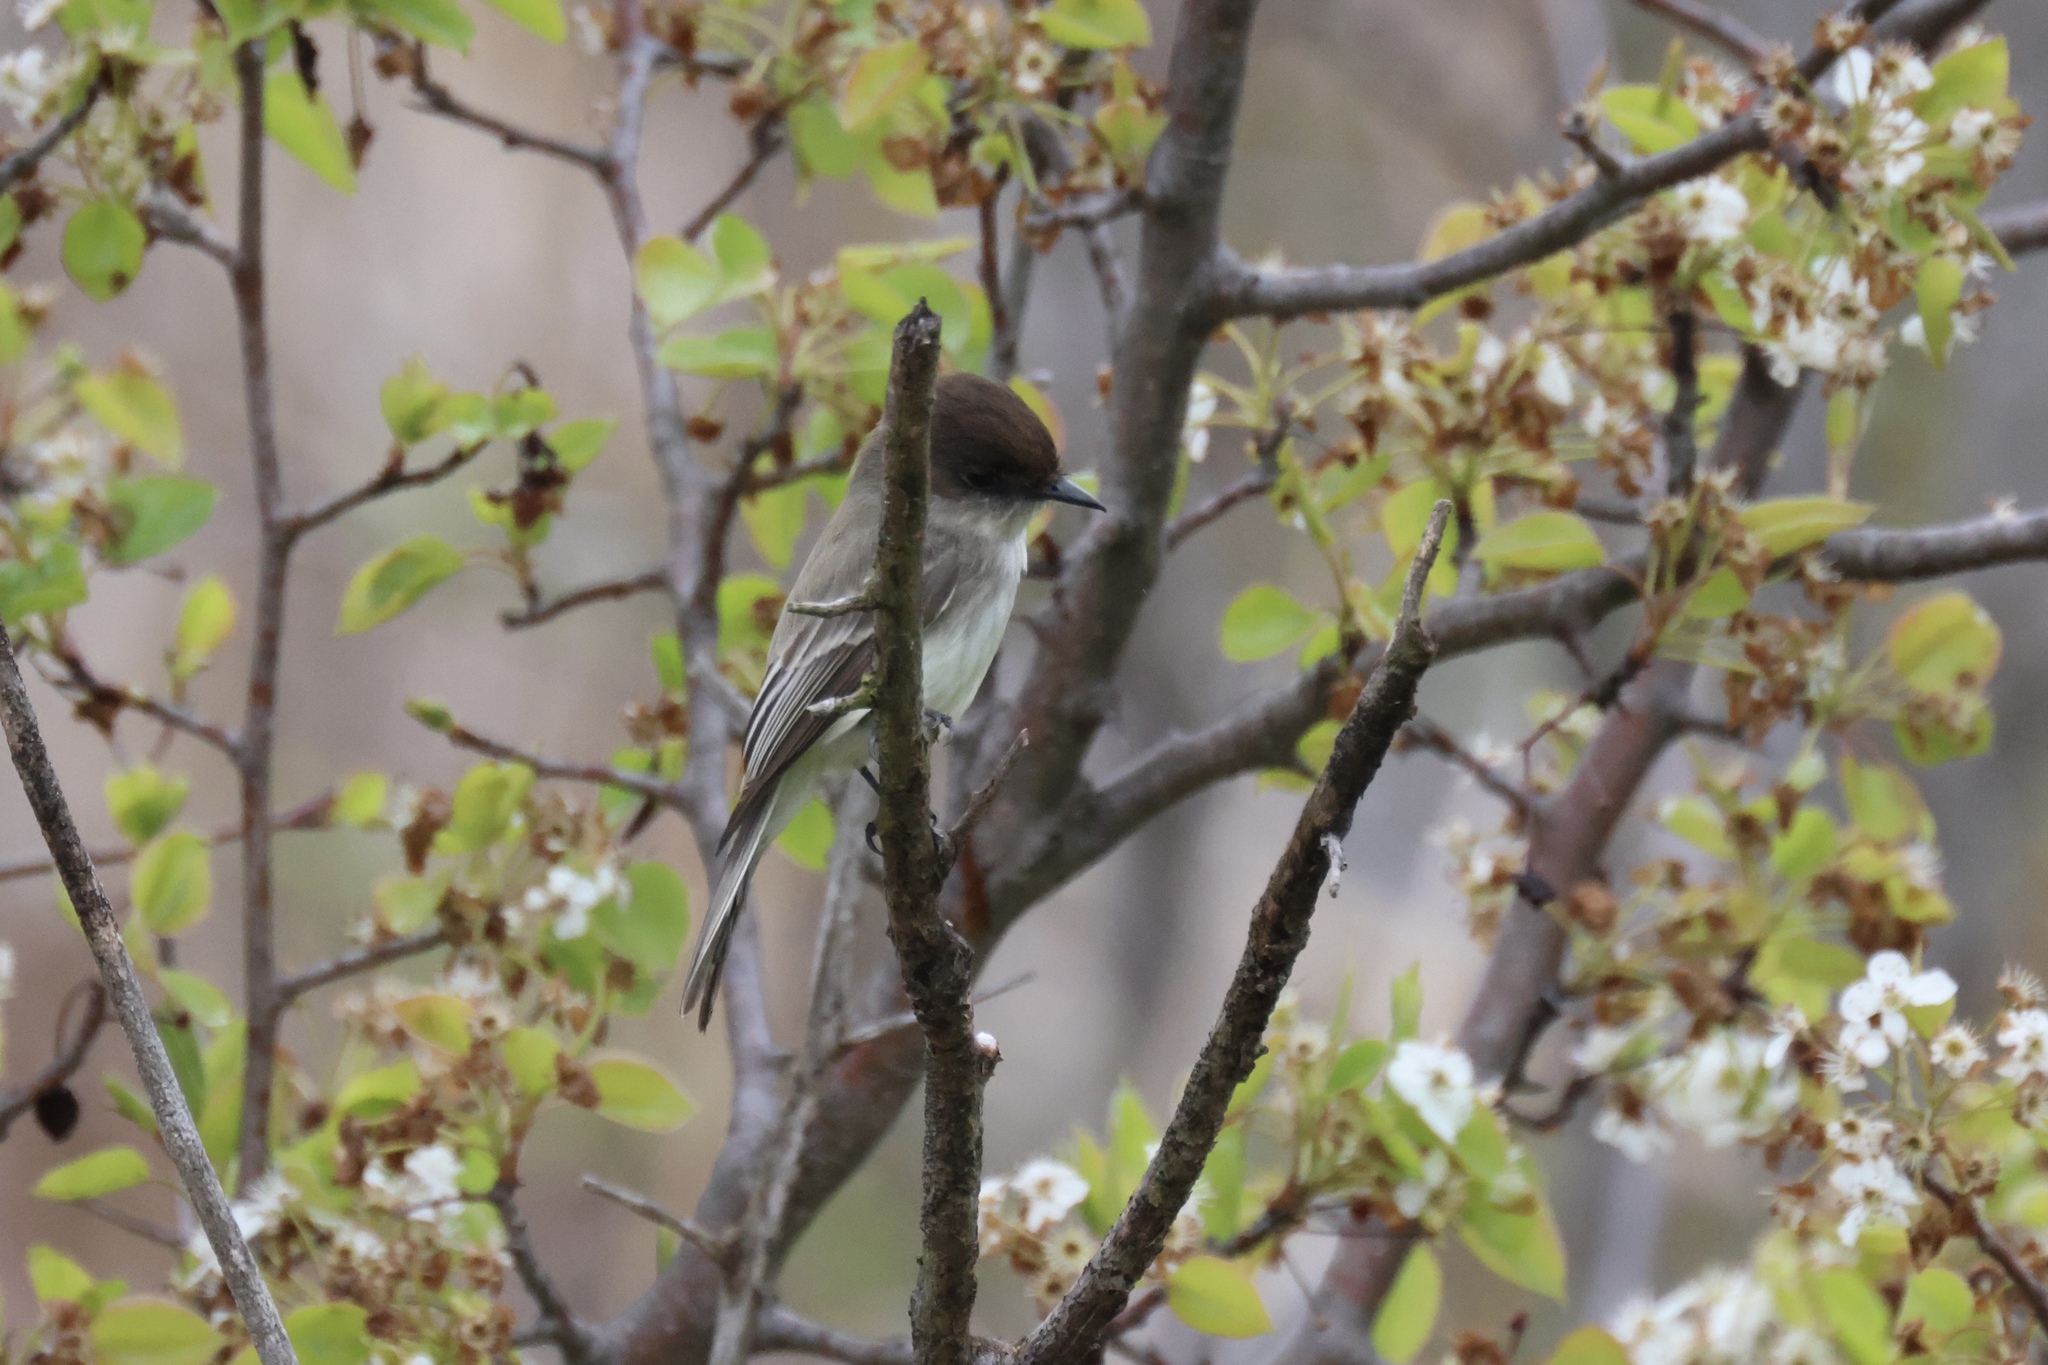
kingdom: Animalia
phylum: Chordata
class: Aves
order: Passeriformes
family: Tyrannidae
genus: Sayornis
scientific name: Sayornis phoebe
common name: Eastern phoebe
